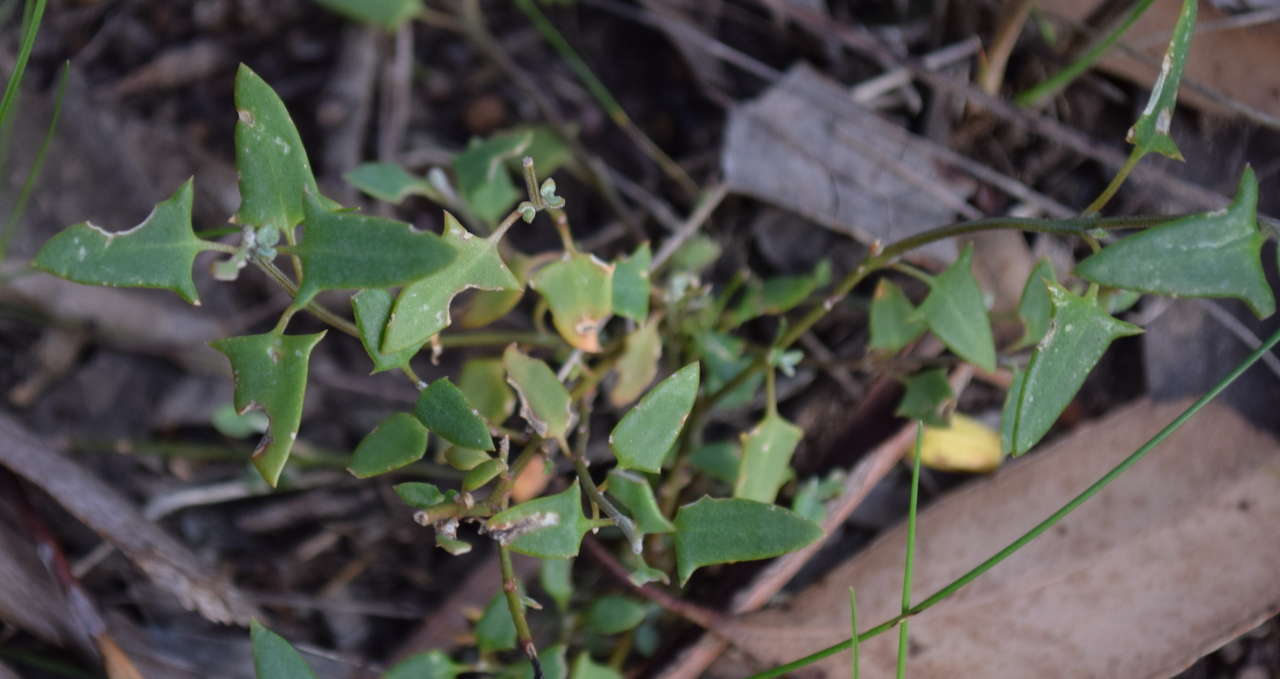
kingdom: Plantae
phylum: Tracheophyta
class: Magnoliopsida
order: Caryophyllales
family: Amaranthaceae
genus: Chenopodium
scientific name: Chenopodium nutans
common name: Climbing-saltbush
